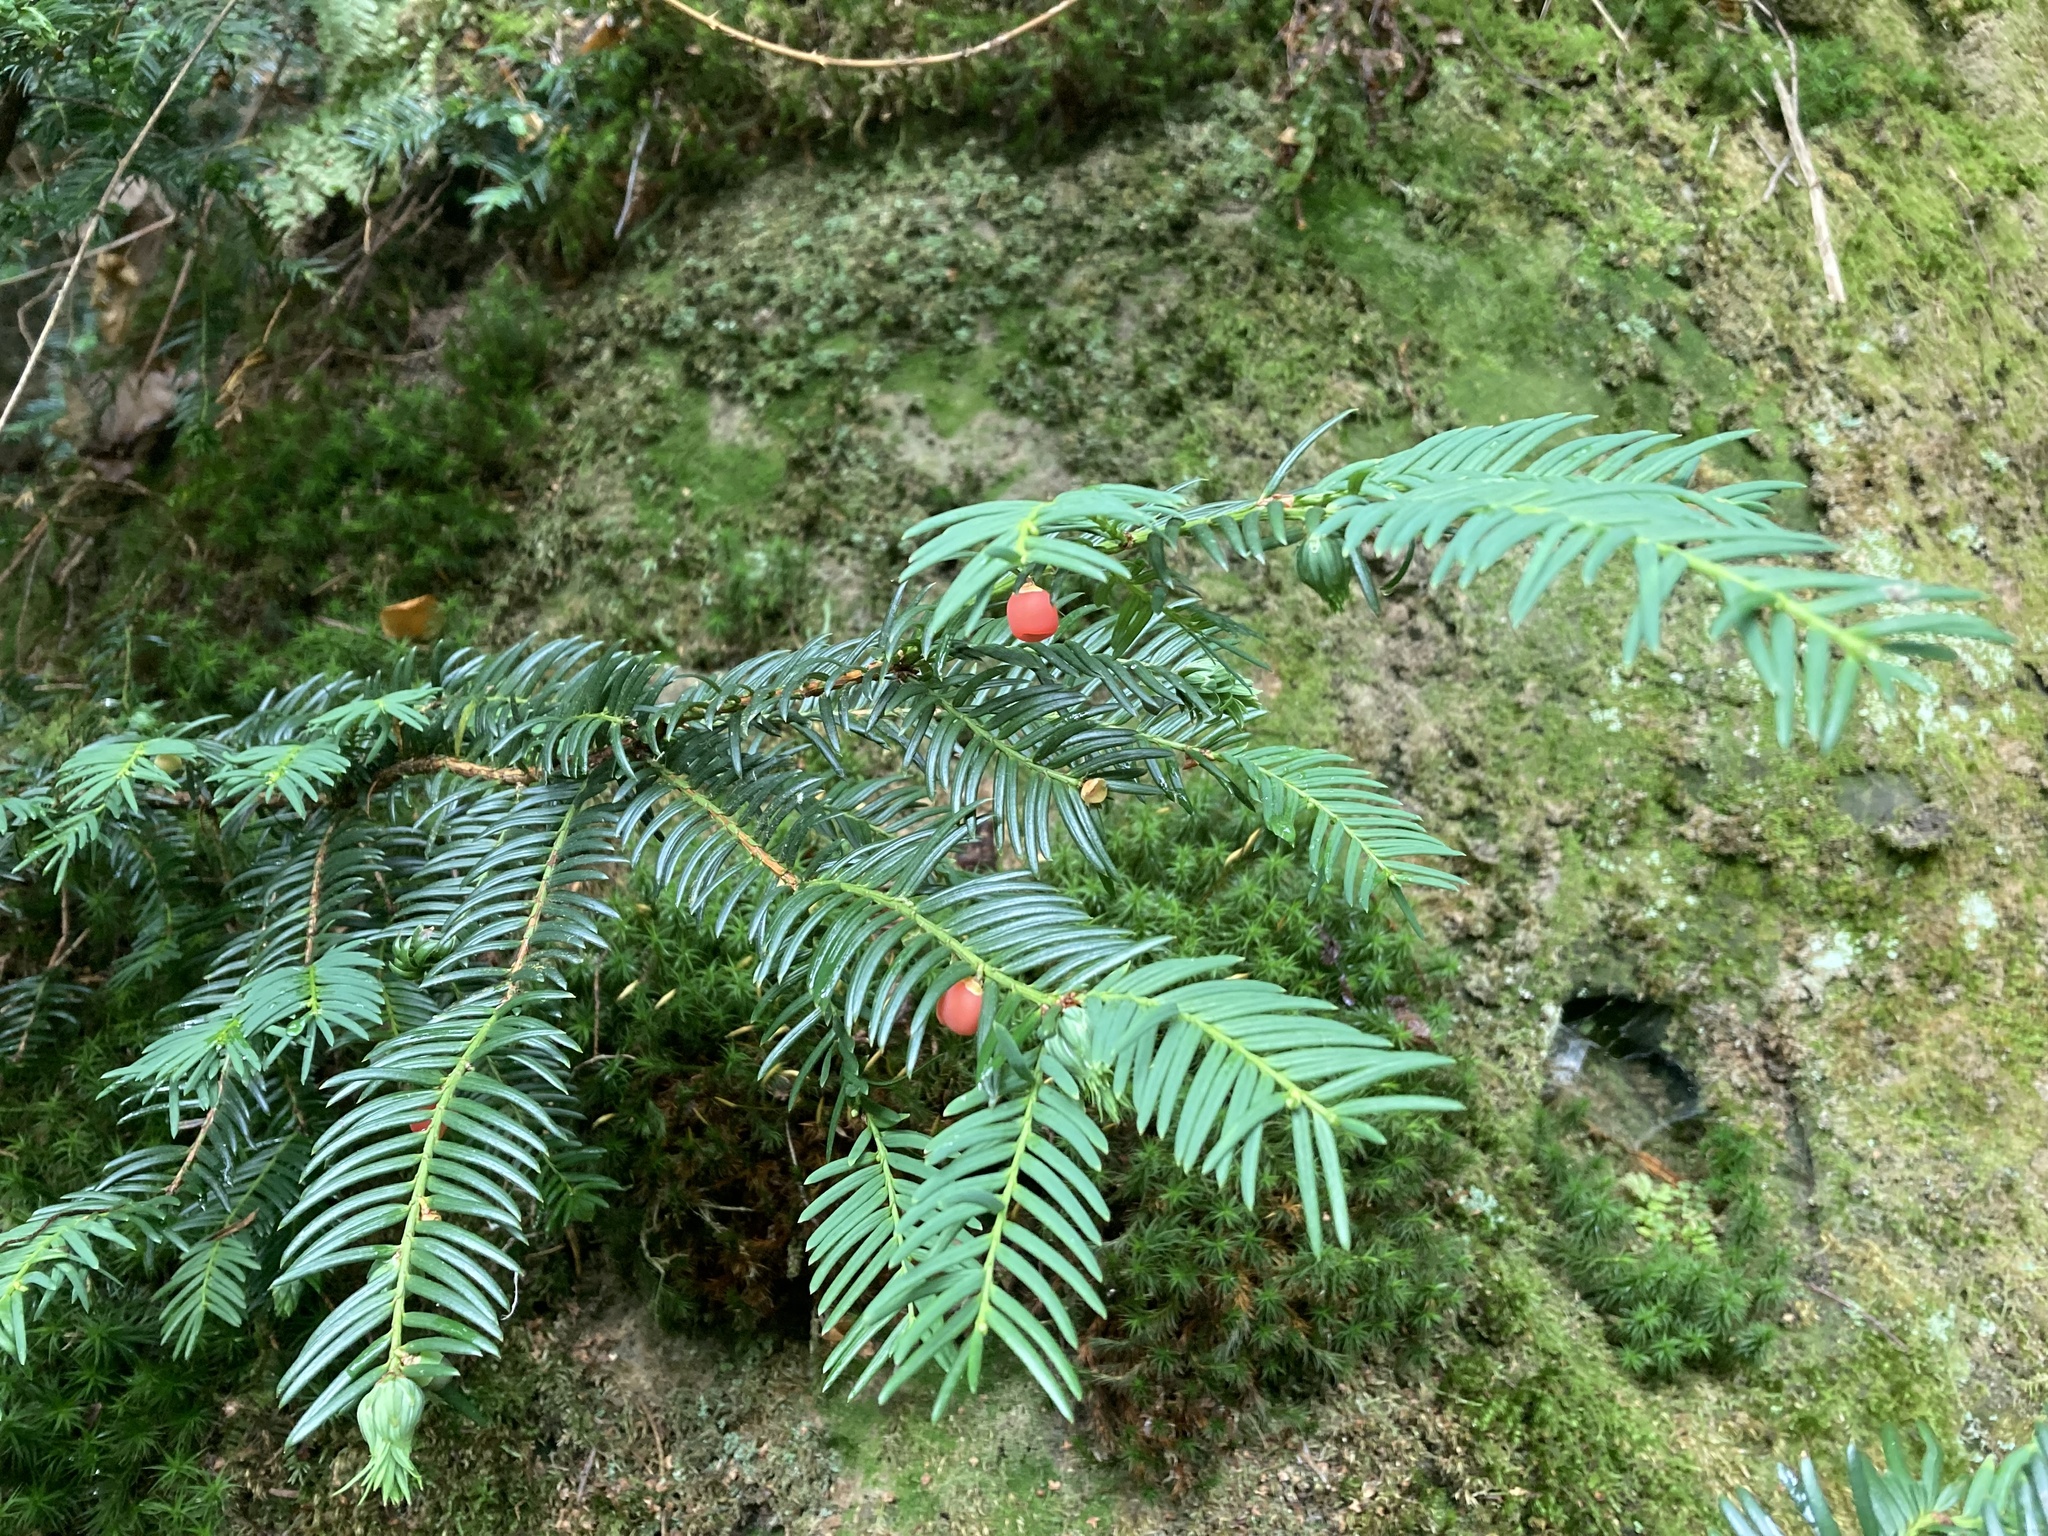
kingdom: Plantae
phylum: Tracheophyta
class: Pinopsida
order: Pinales
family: Taxaceae
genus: Taxus
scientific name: Taxus baccata
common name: Yew
